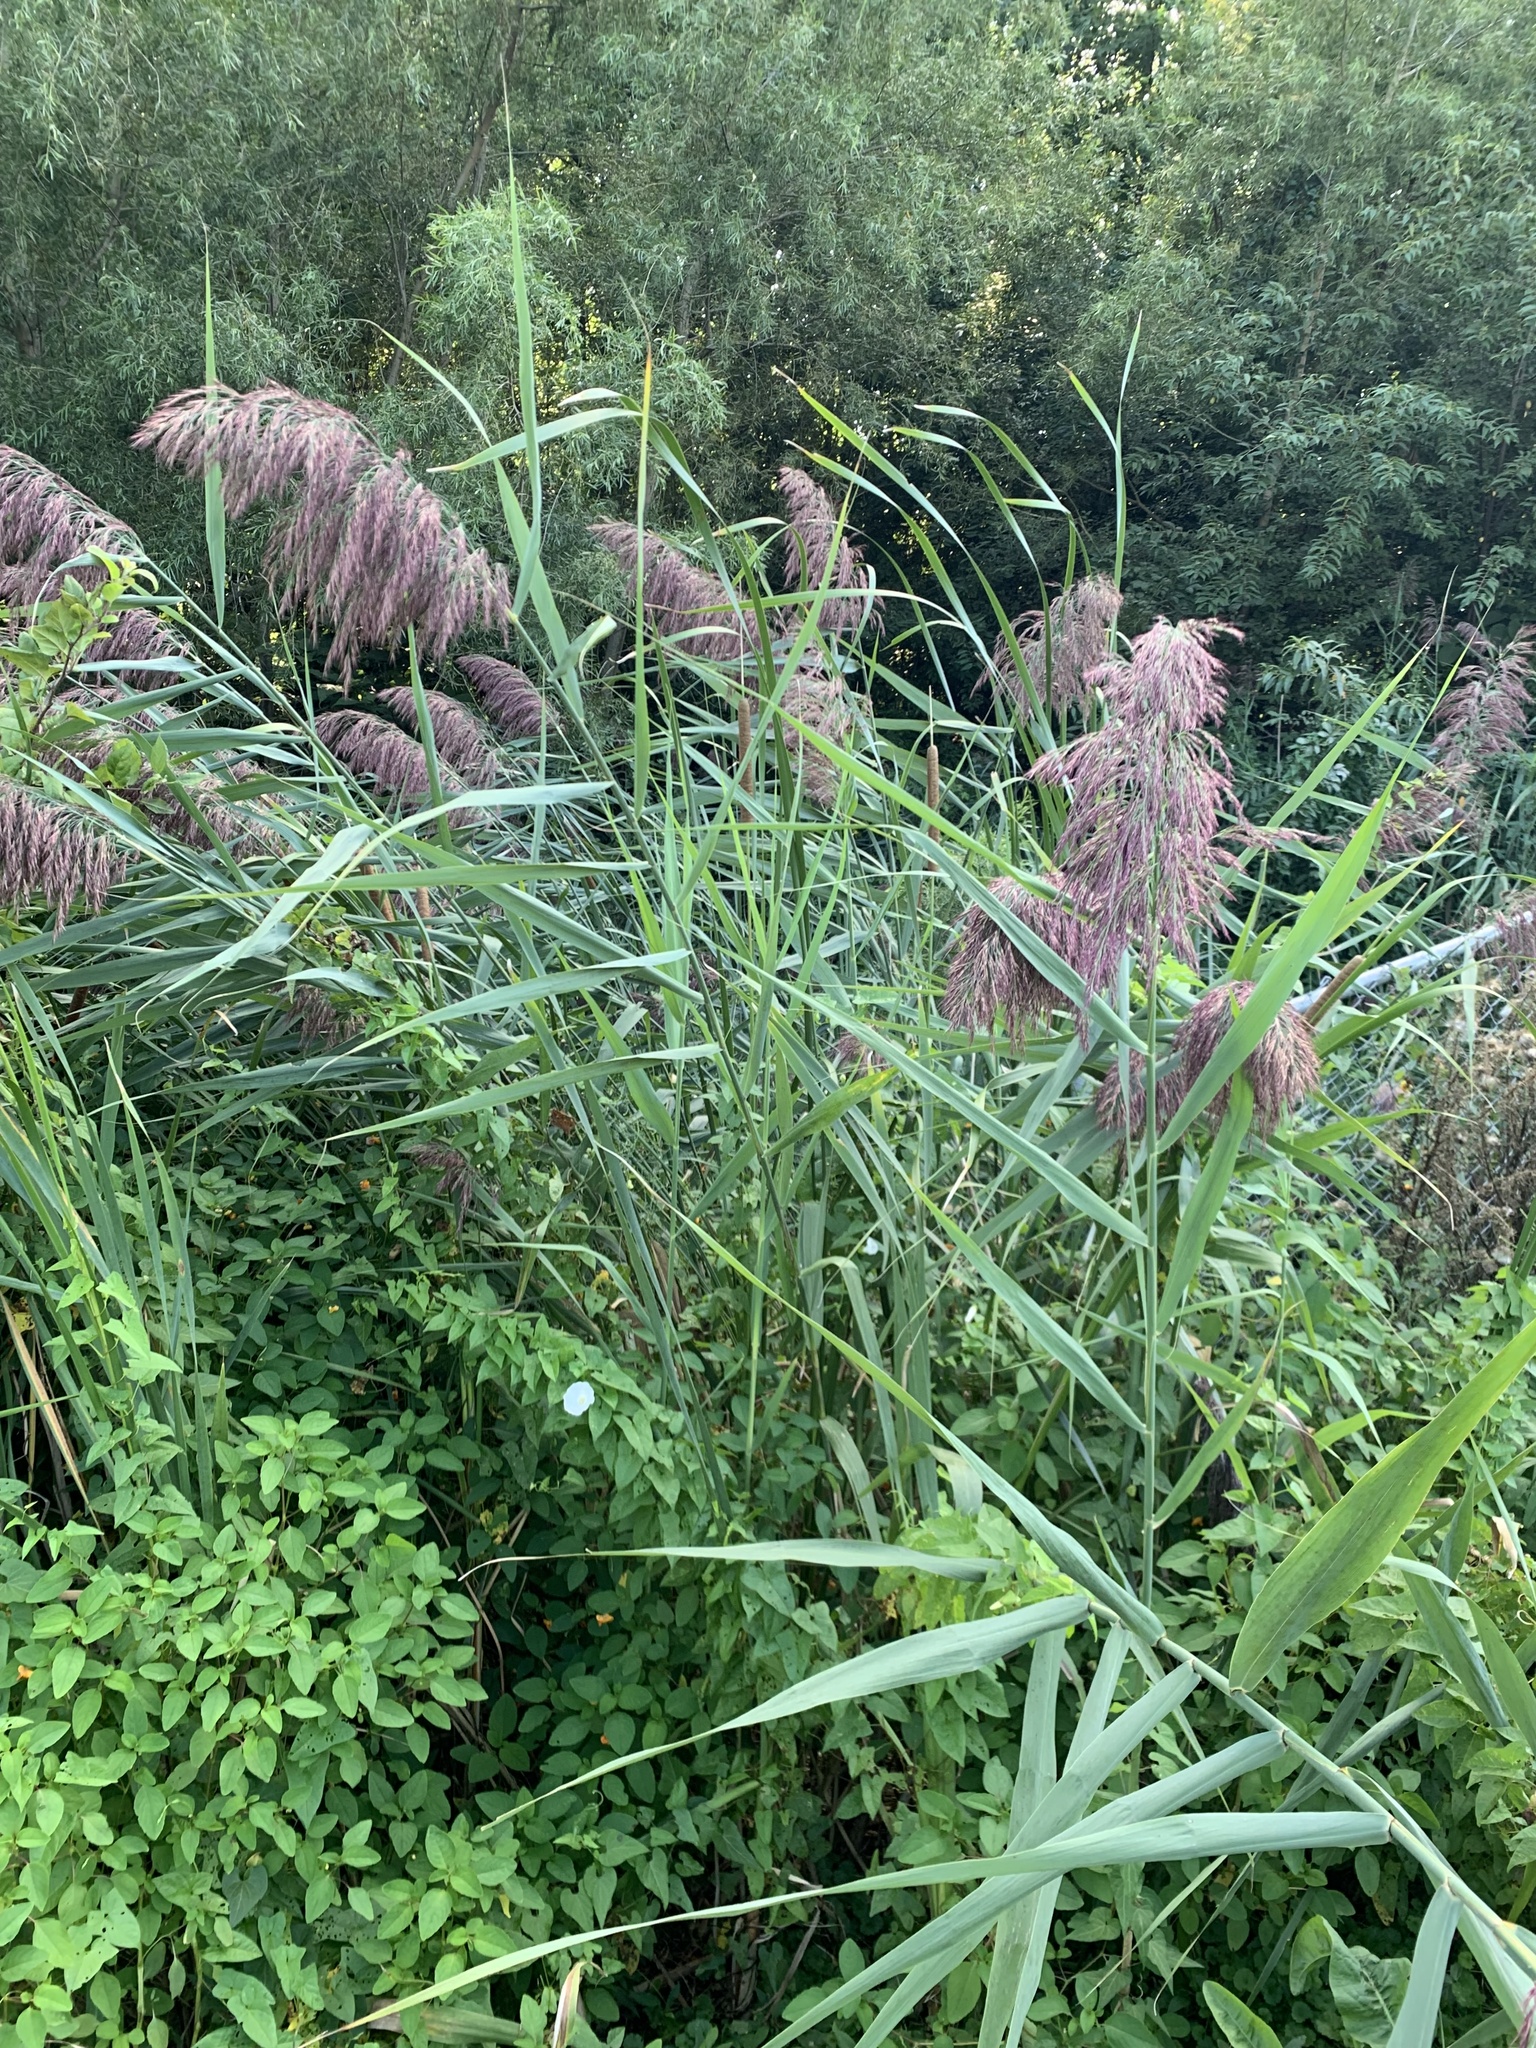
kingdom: Plantae
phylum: Tracheophyta
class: Liliopsida
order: Poales
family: Poaceae
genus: Phragmites
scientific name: Phragmites australis
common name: Common reed
